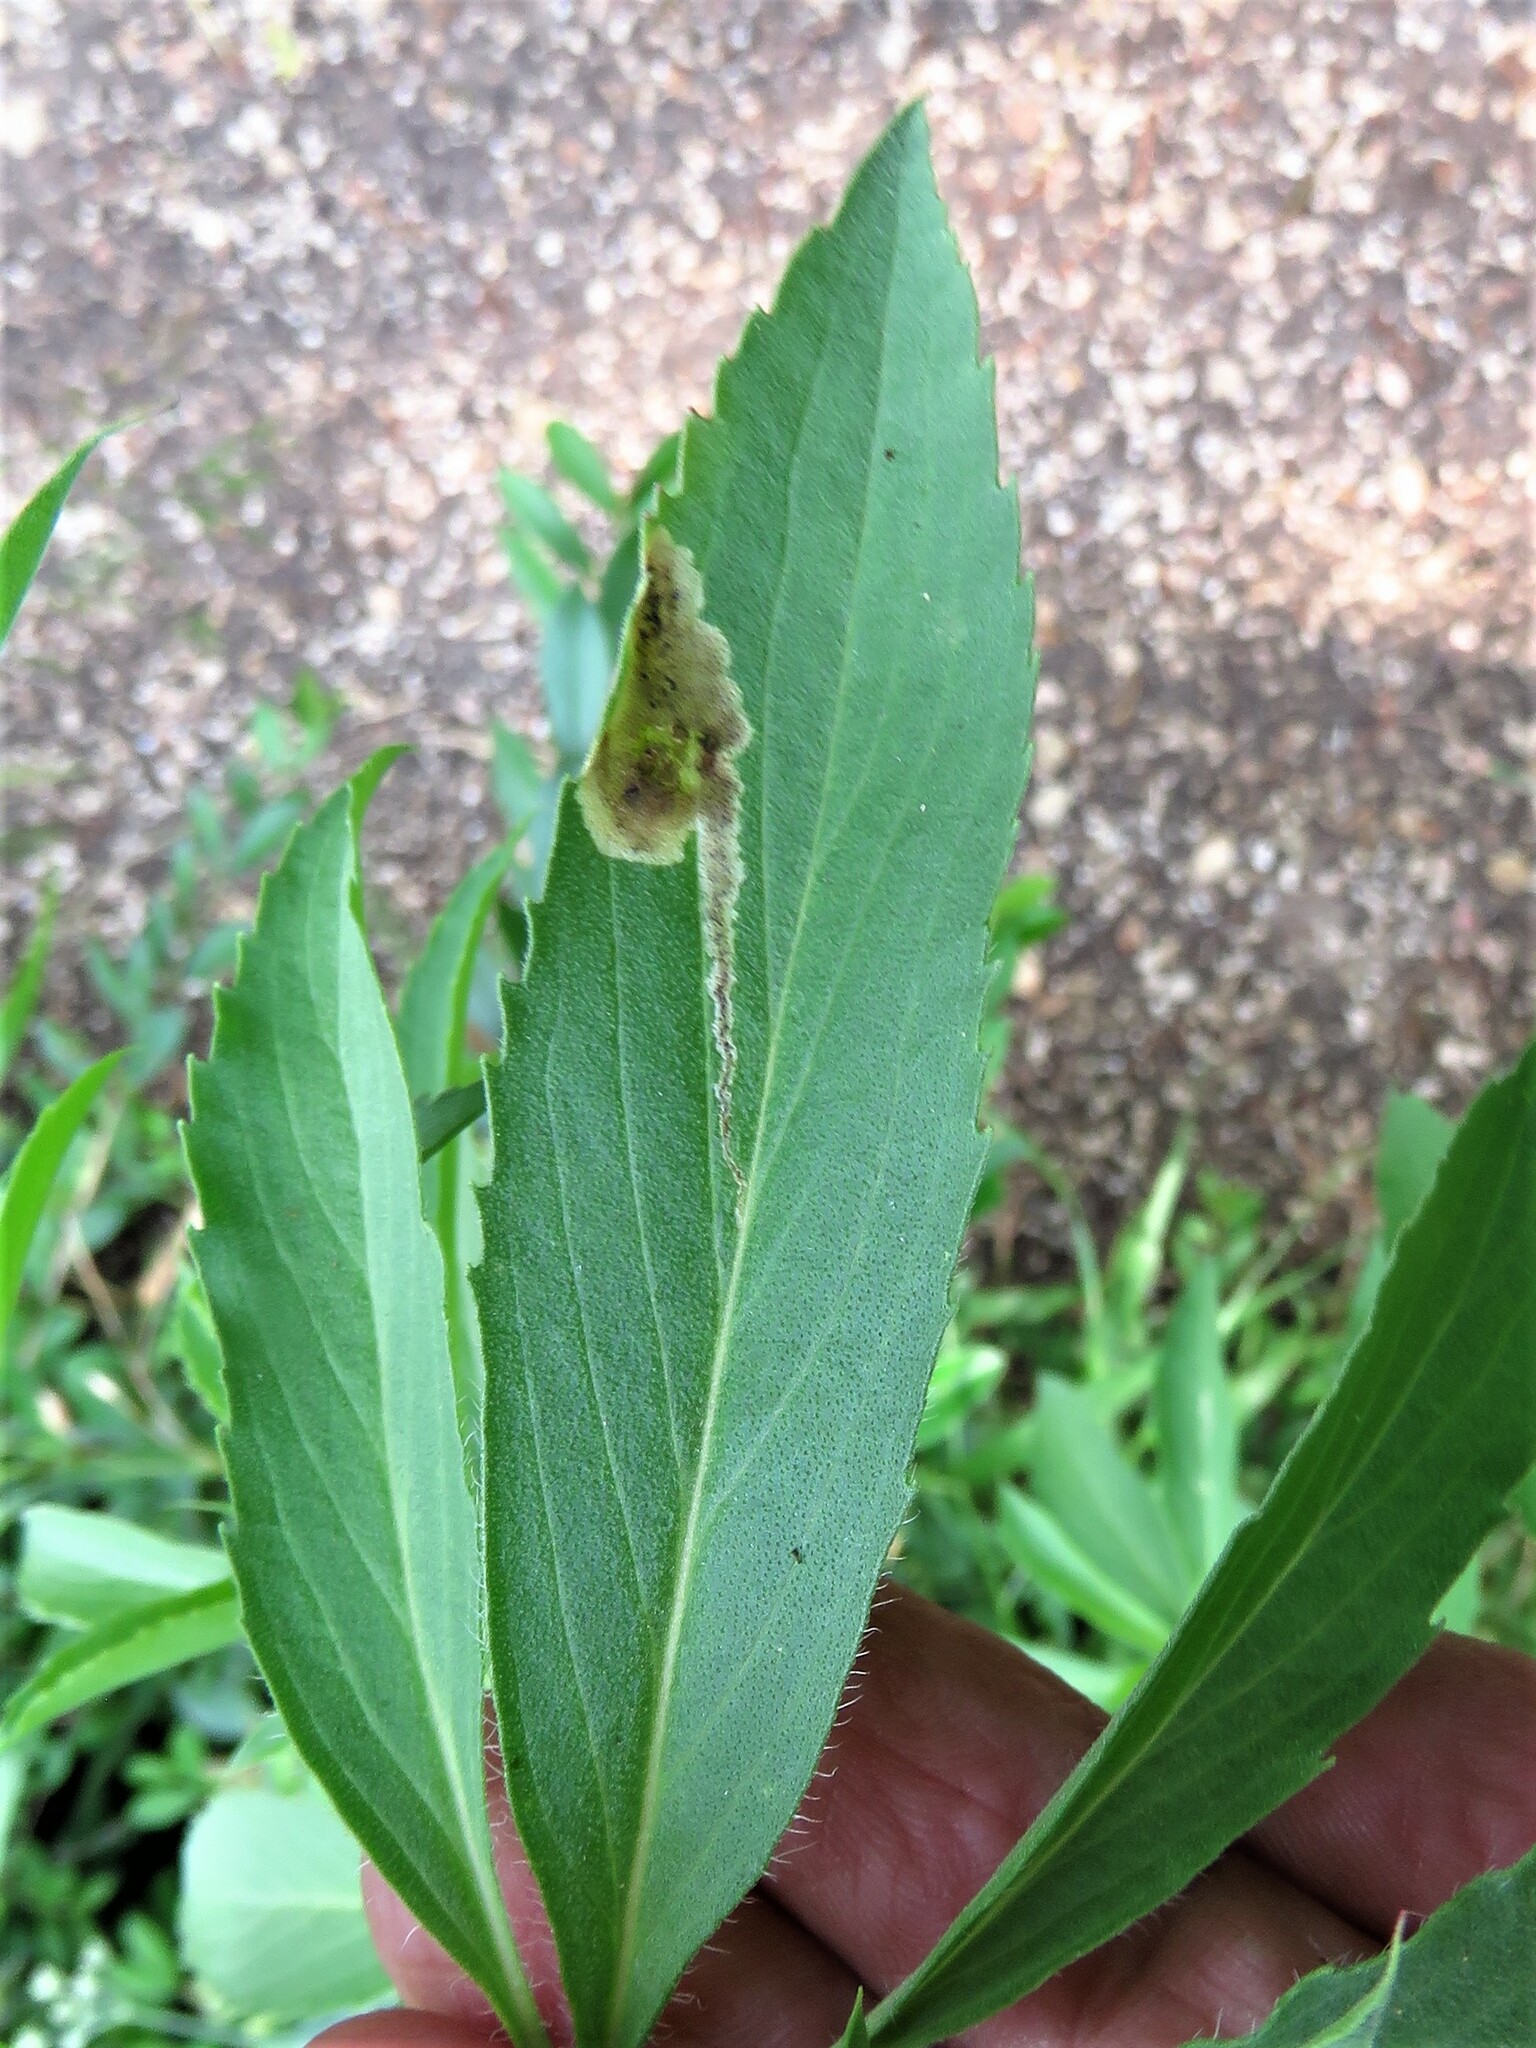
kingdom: Animalia
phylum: Arthropoda
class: Insecta
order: Diptera
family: Agromyzidae
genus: Calycomyza
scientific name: Calycomyza menthae
